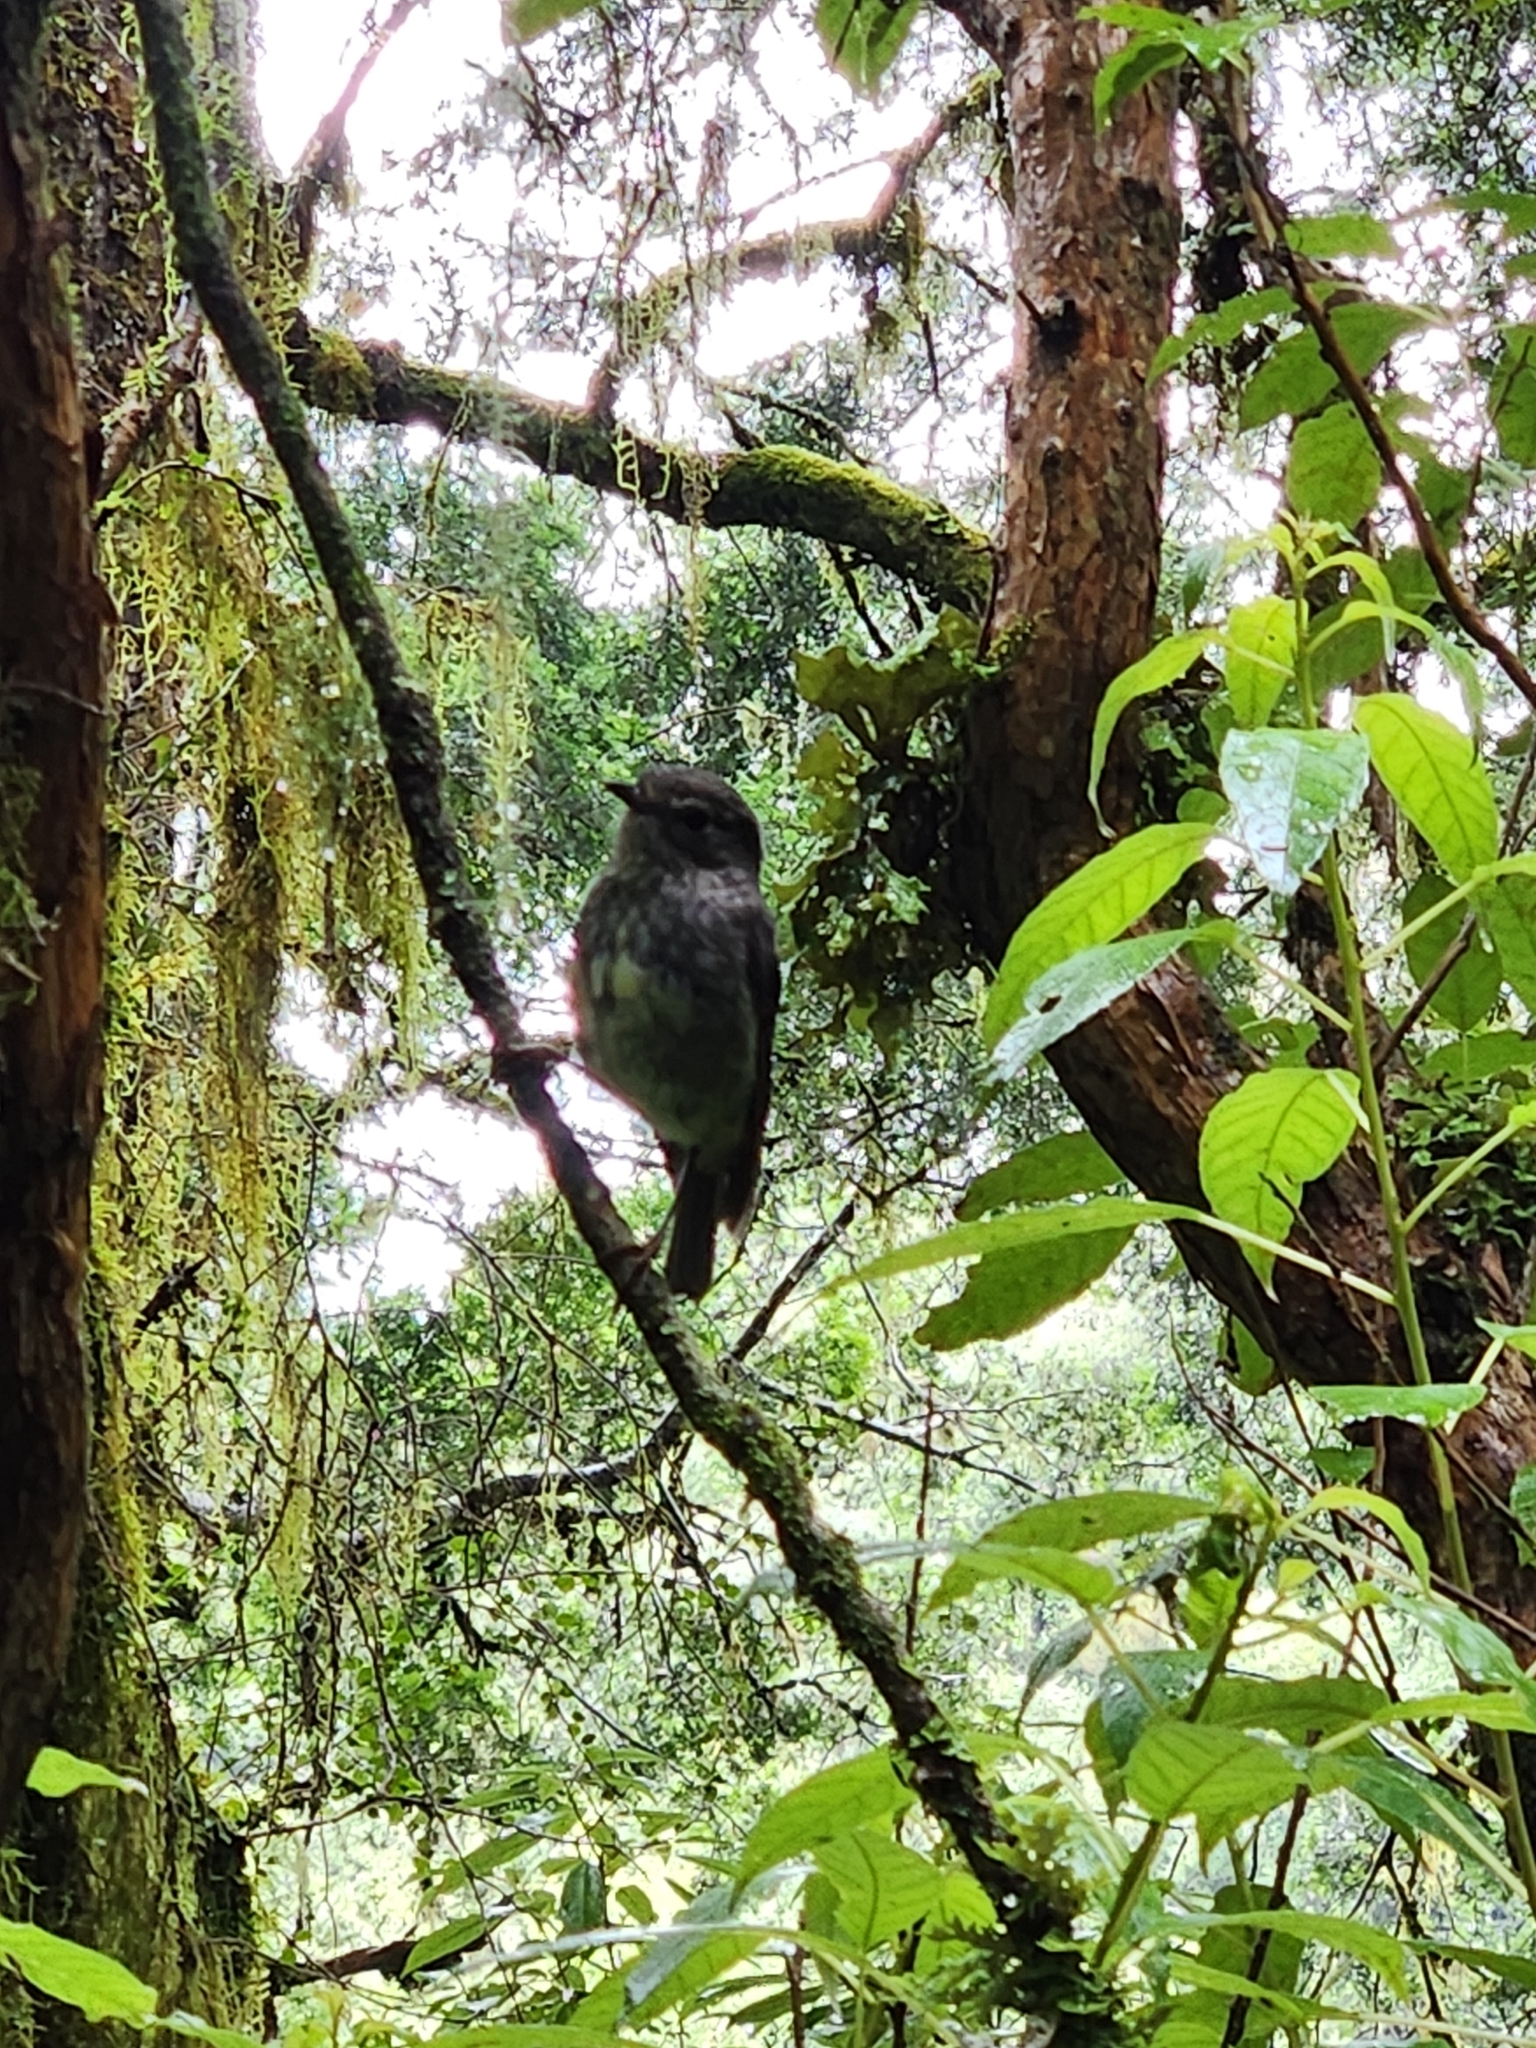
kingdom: Animalia
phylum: Chordata
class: Aves
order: Passeriformes
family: Petroicidae
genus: Petroica
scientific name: Petroica australis
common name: New zealand robin
